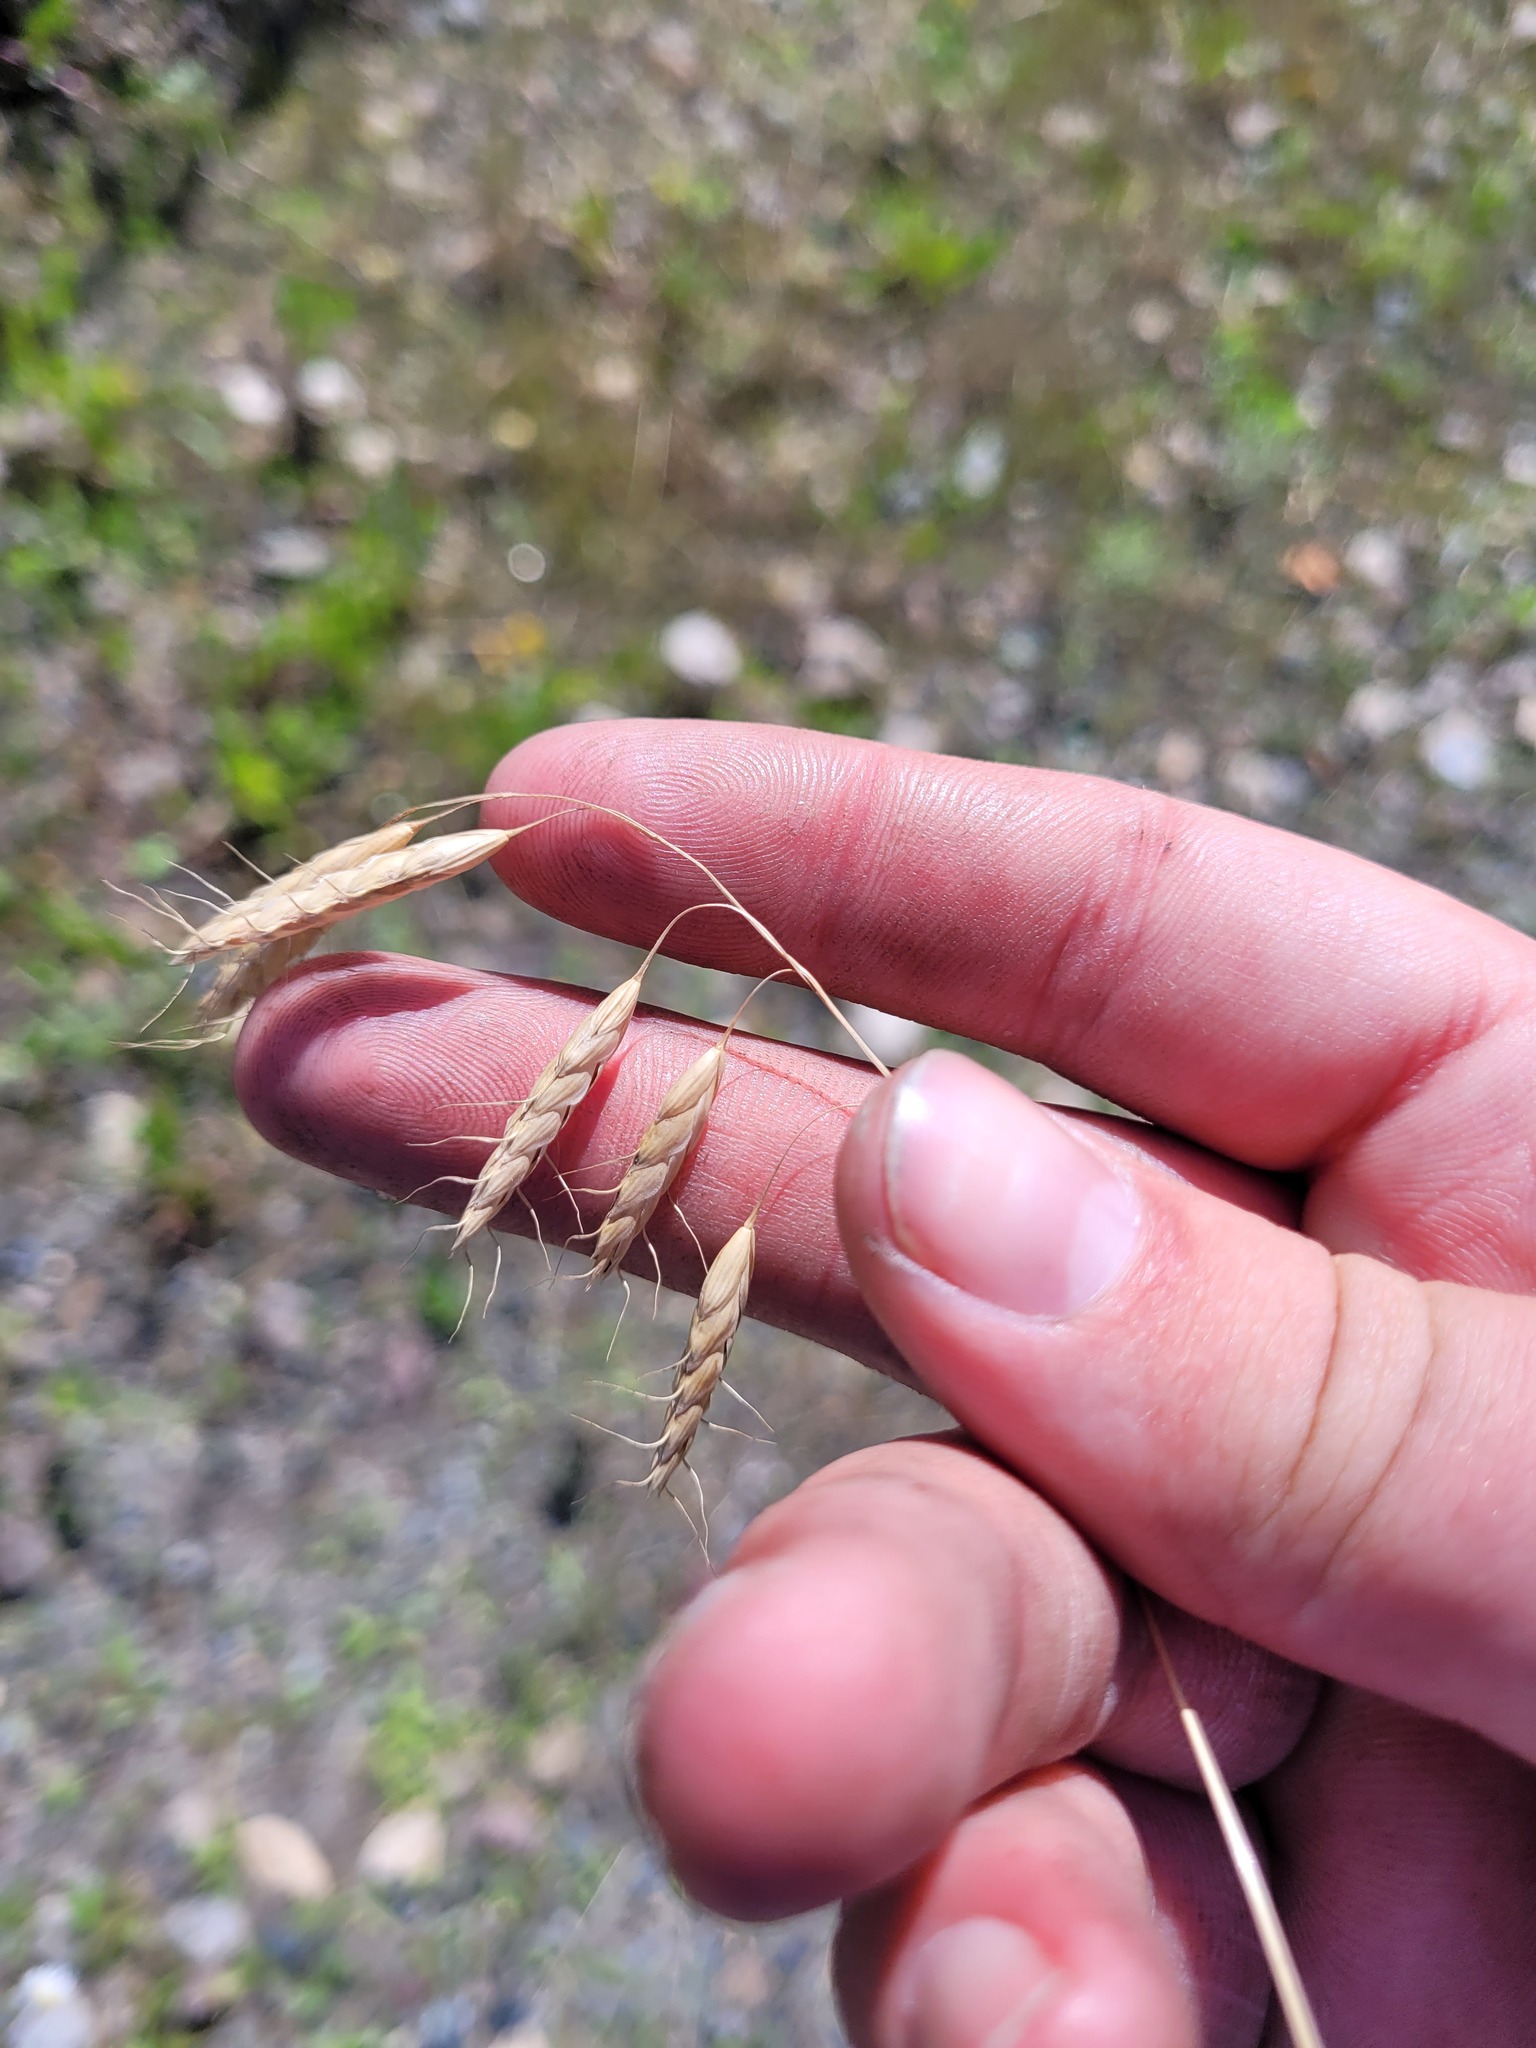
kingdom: Plantae
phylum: Tracheophyta
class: Liliopsida
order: Poales
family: Poaceae
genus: Bromus
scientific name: Bromus squarrosus
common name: Corn brome
